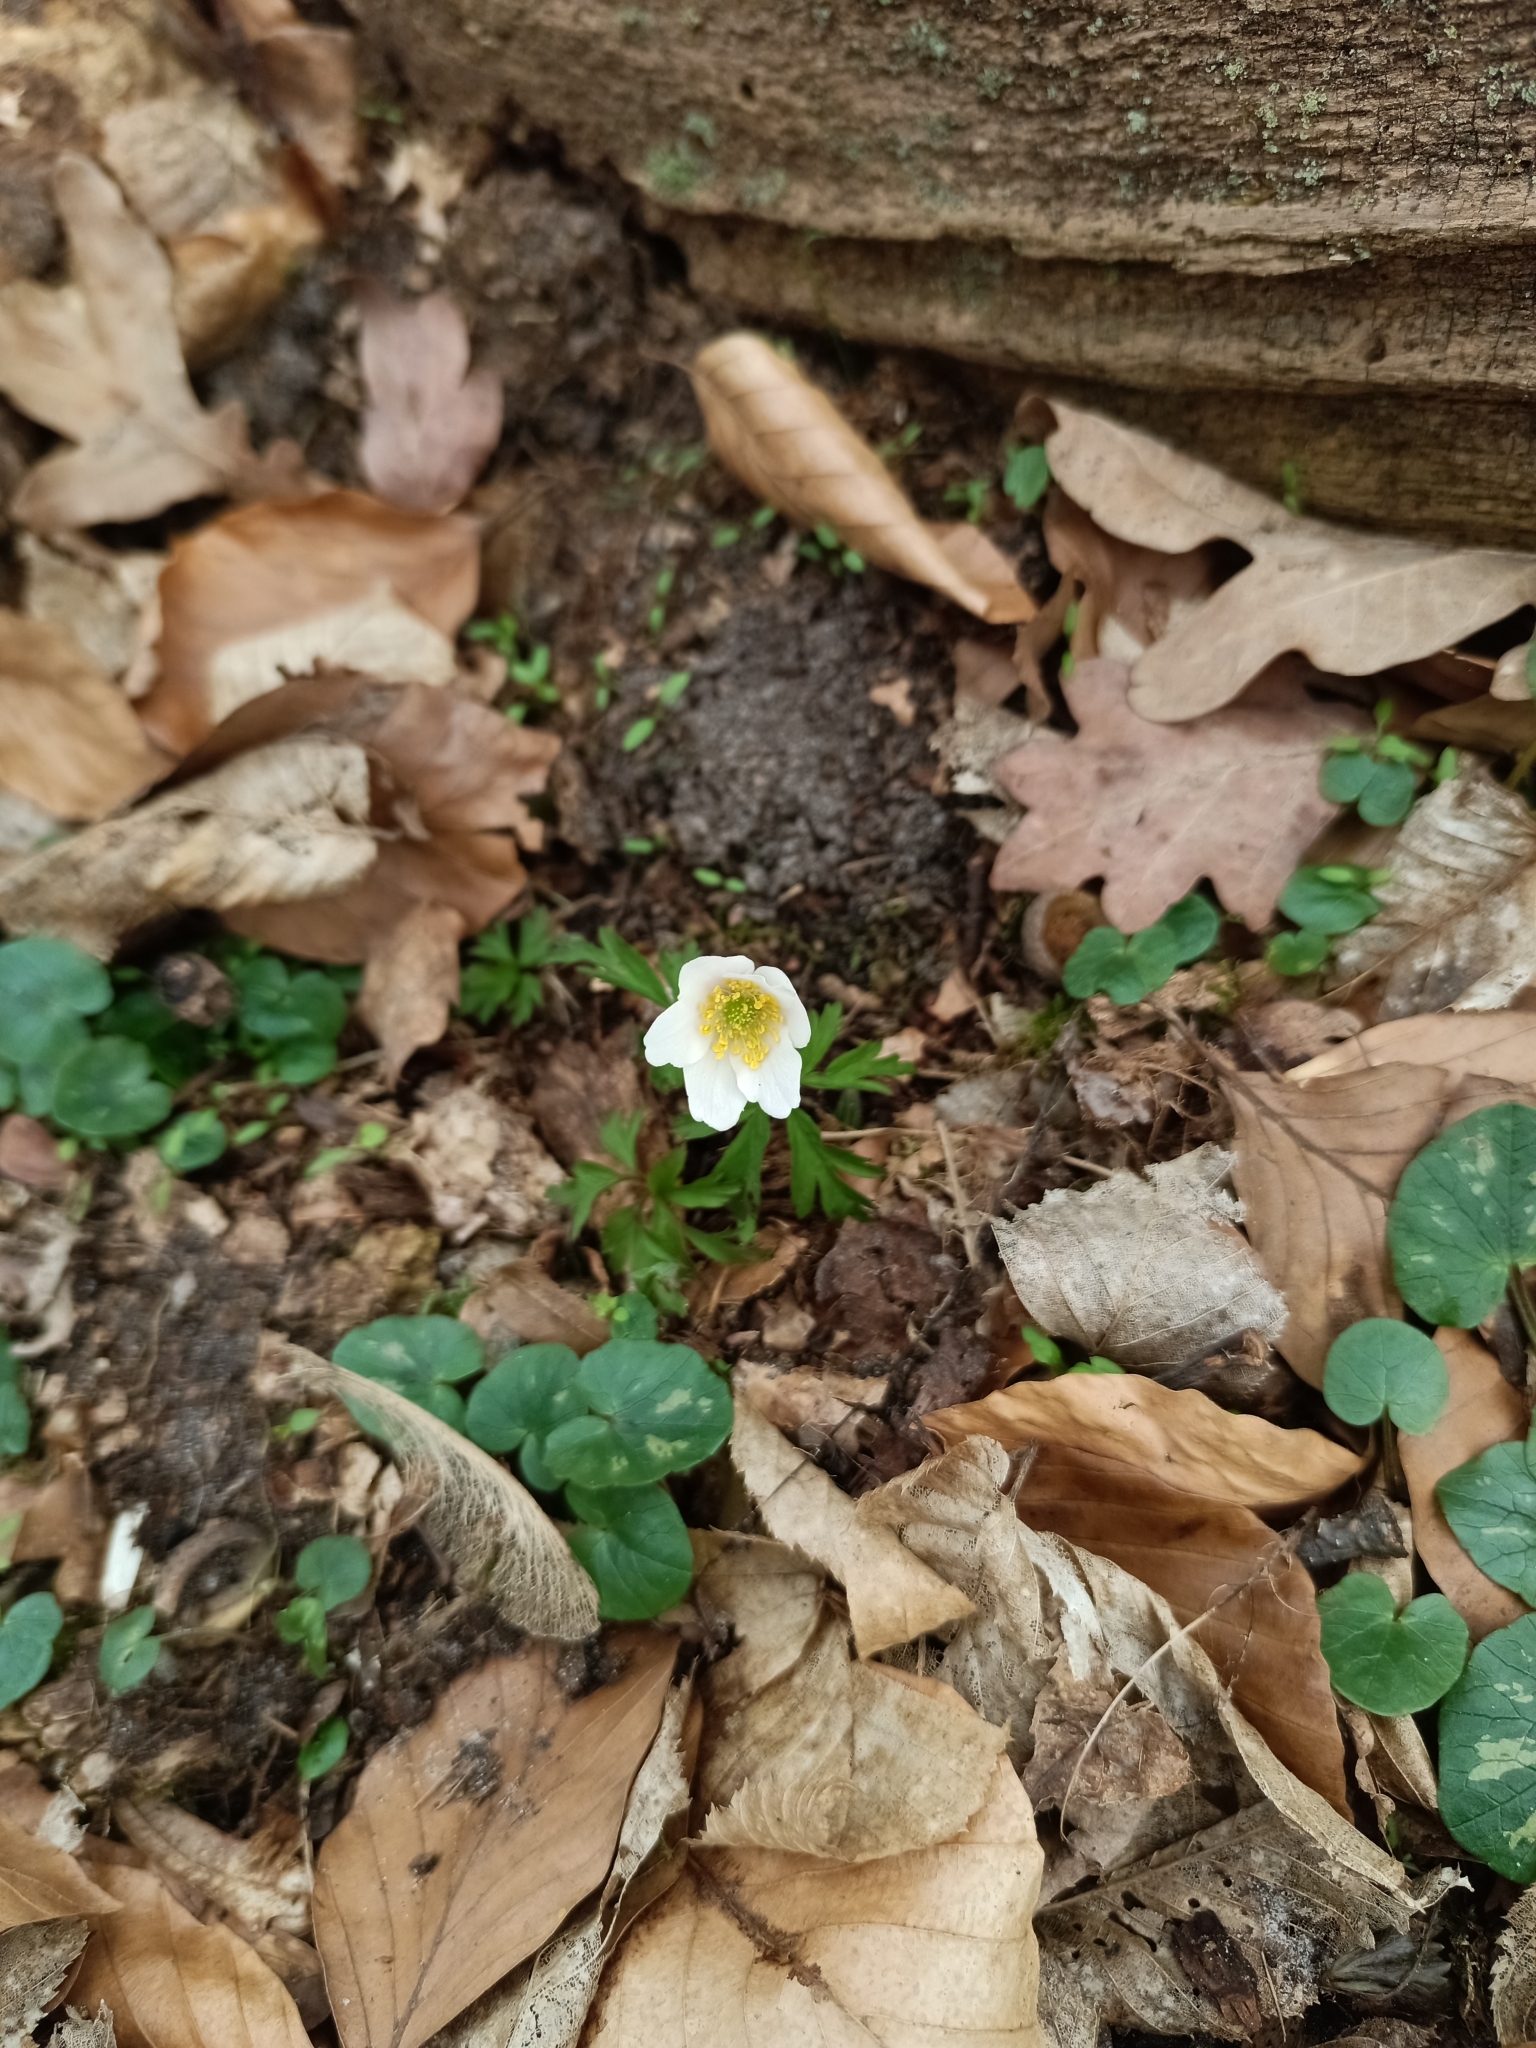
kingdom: Plantae
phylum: Tracheophyta
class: Magnoliopsida
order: Ranunculales
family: Ranunculaceae
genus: Anemone
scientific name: Anemone nemorosa
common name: Wood anemone
